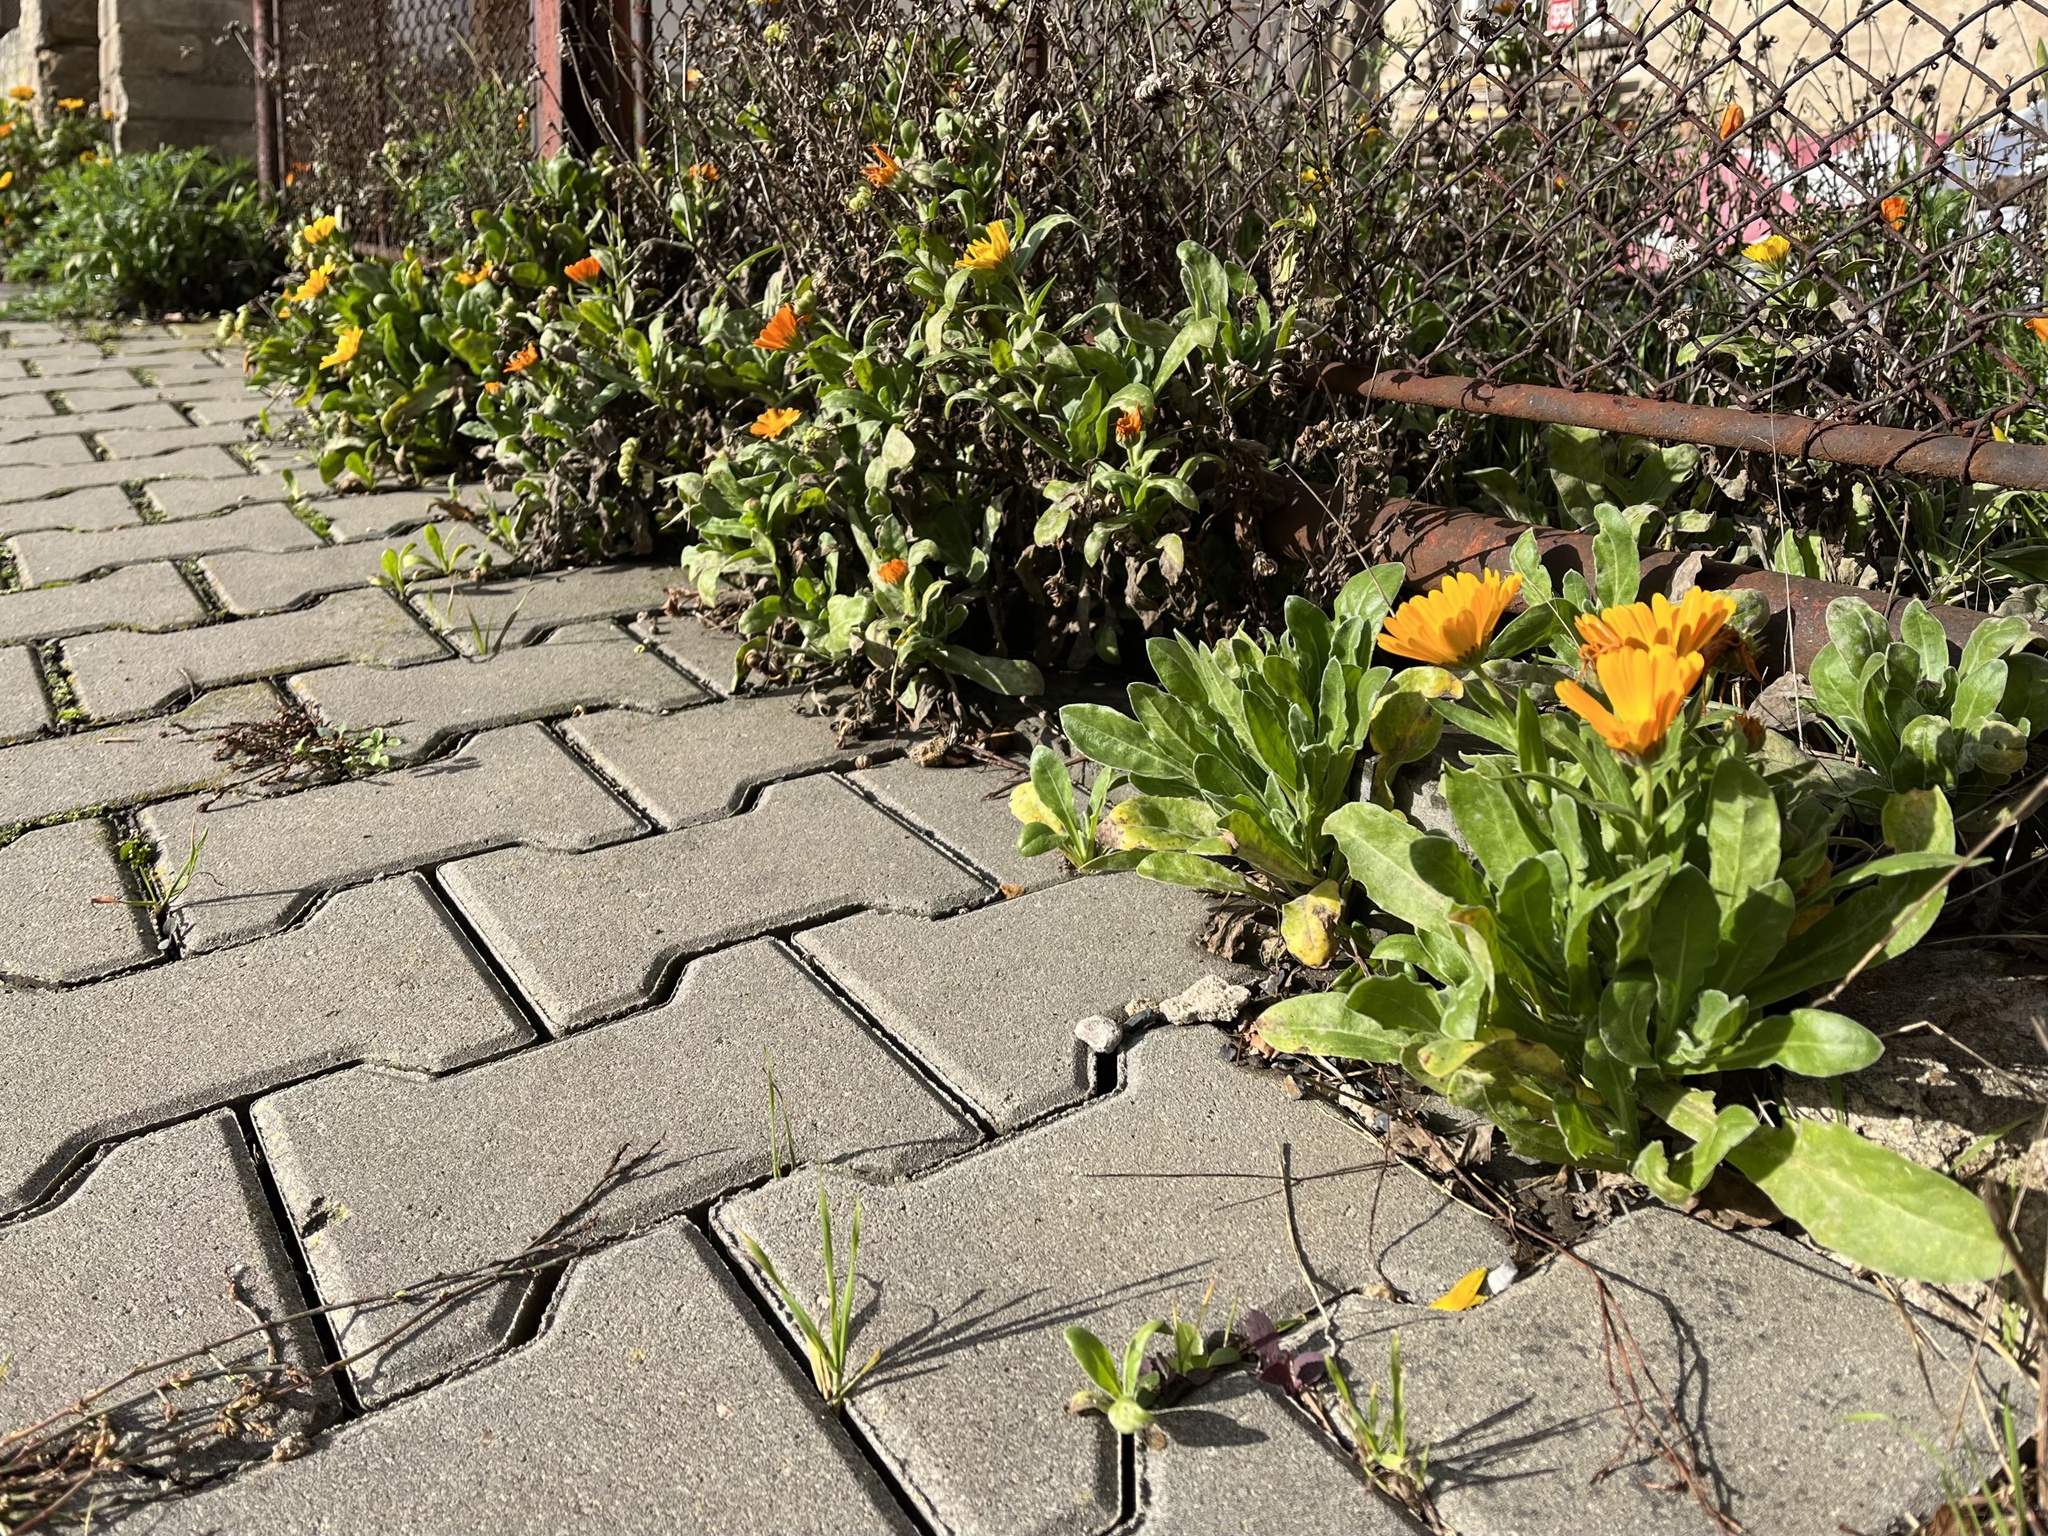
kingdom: Plantae
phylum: Tracheophyta
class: Magnoliopsida
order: Asterales
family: Asteraceae
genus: Calendula
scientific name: Calendula officinalis
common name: Pot marigold
